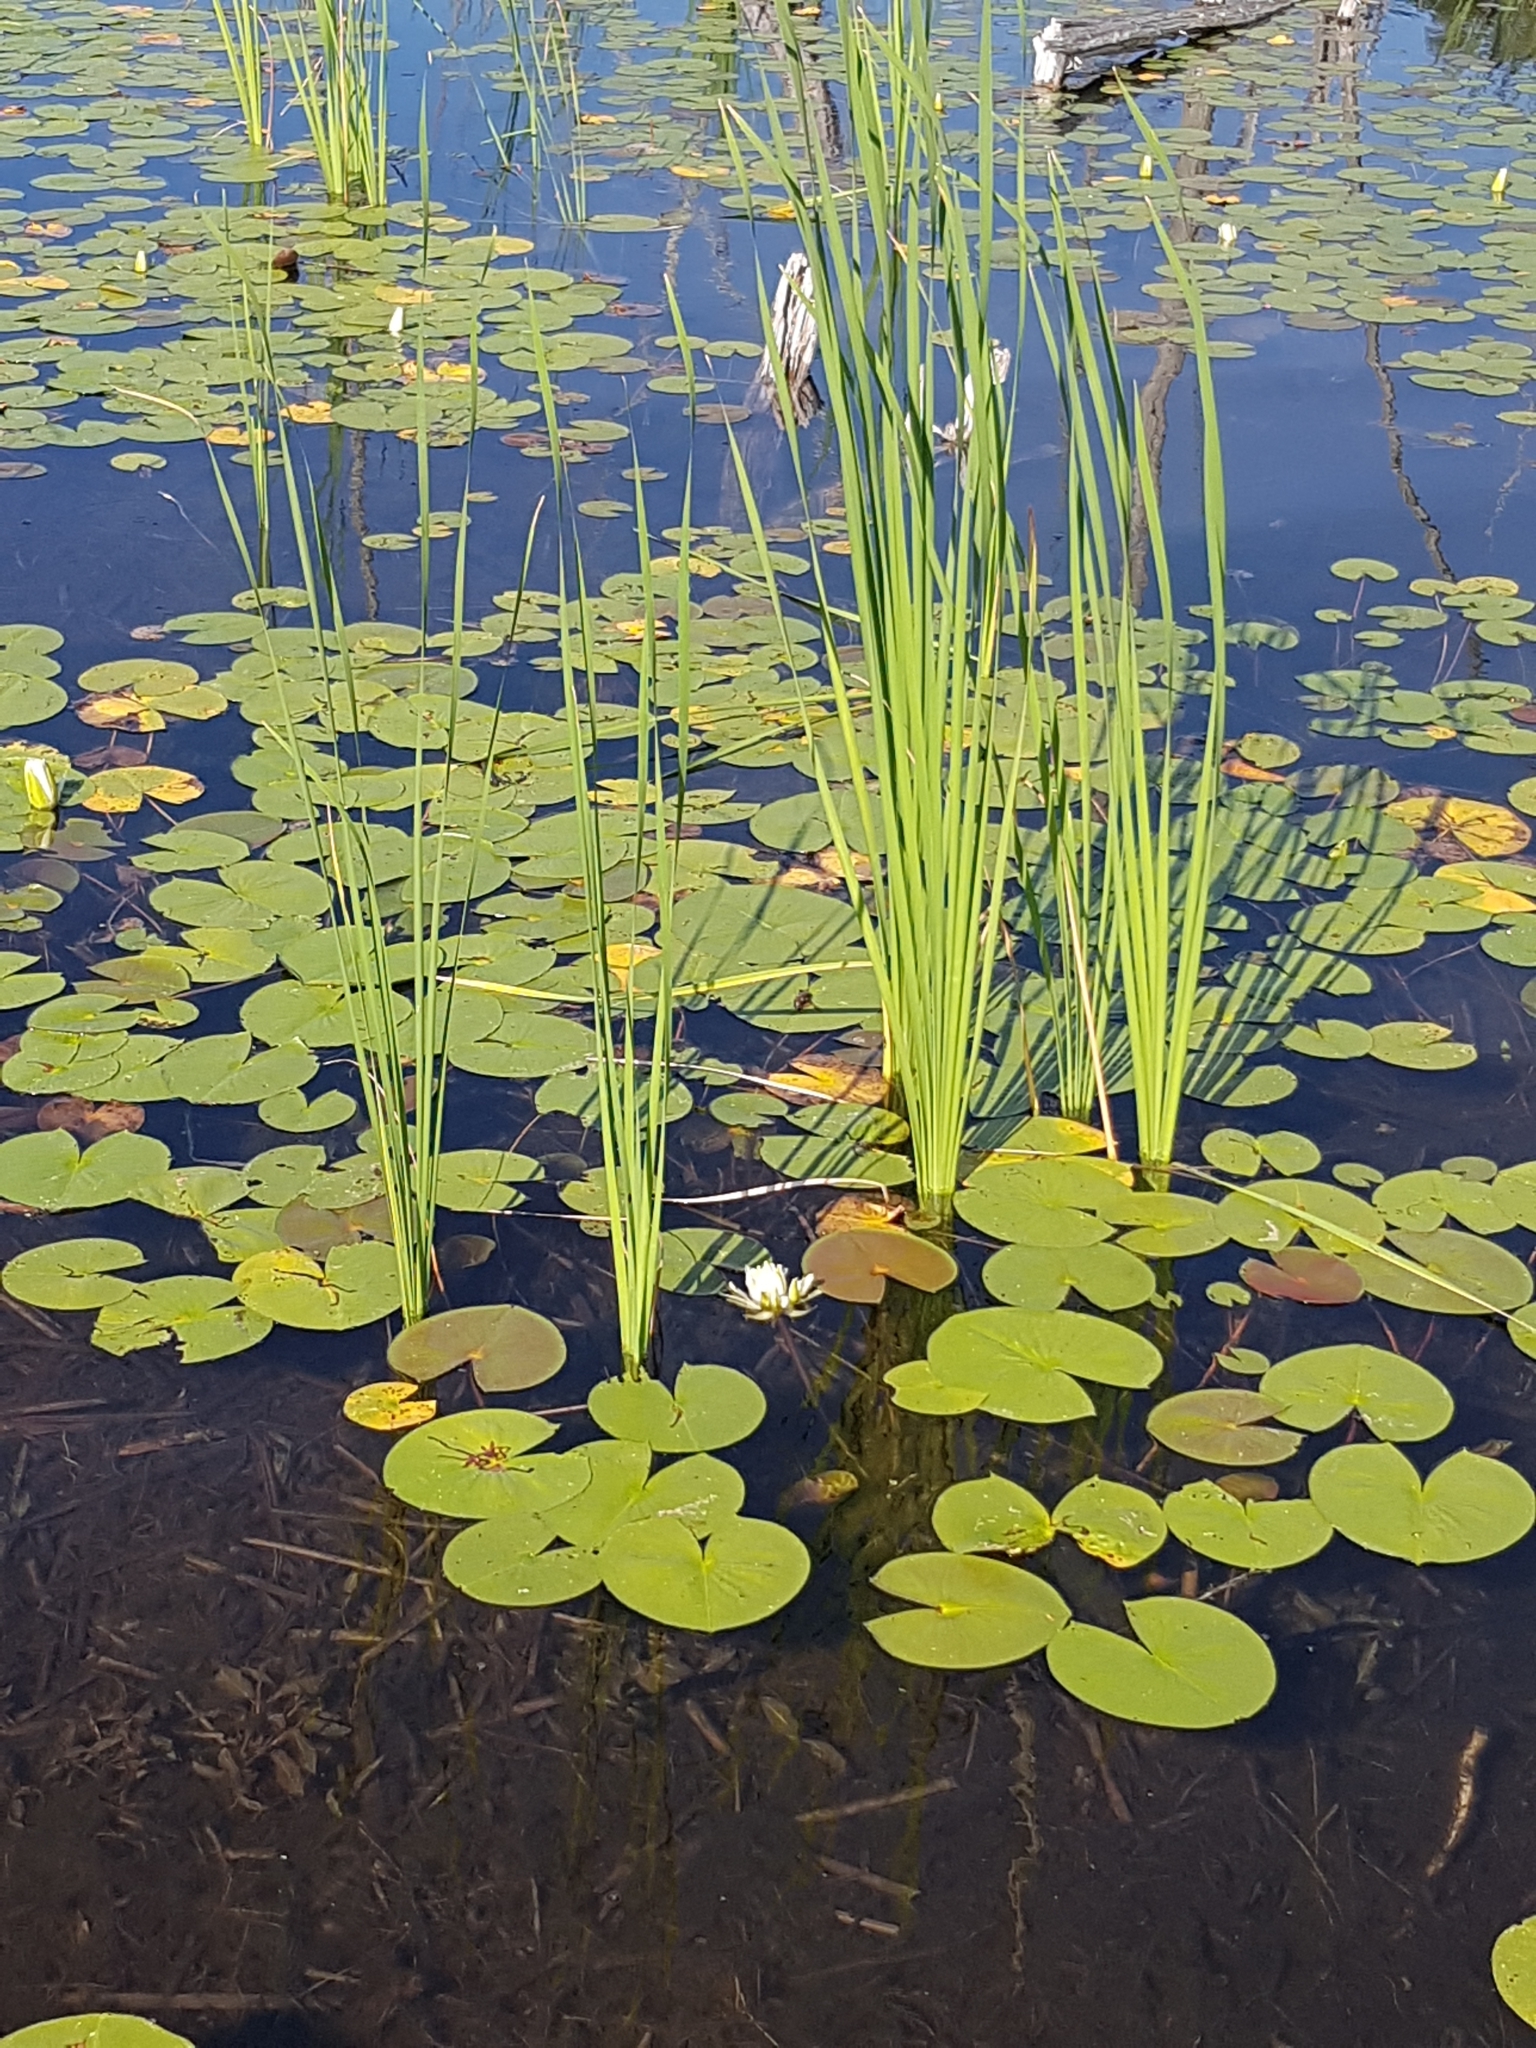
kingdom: Plantae
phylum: Tracheophyta
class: Magnoliopsida
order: Nymphaeales
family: Nymphaeaceae
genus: Nymphaea
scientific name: Nymphaea odorata
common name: Fragrant water-lily
